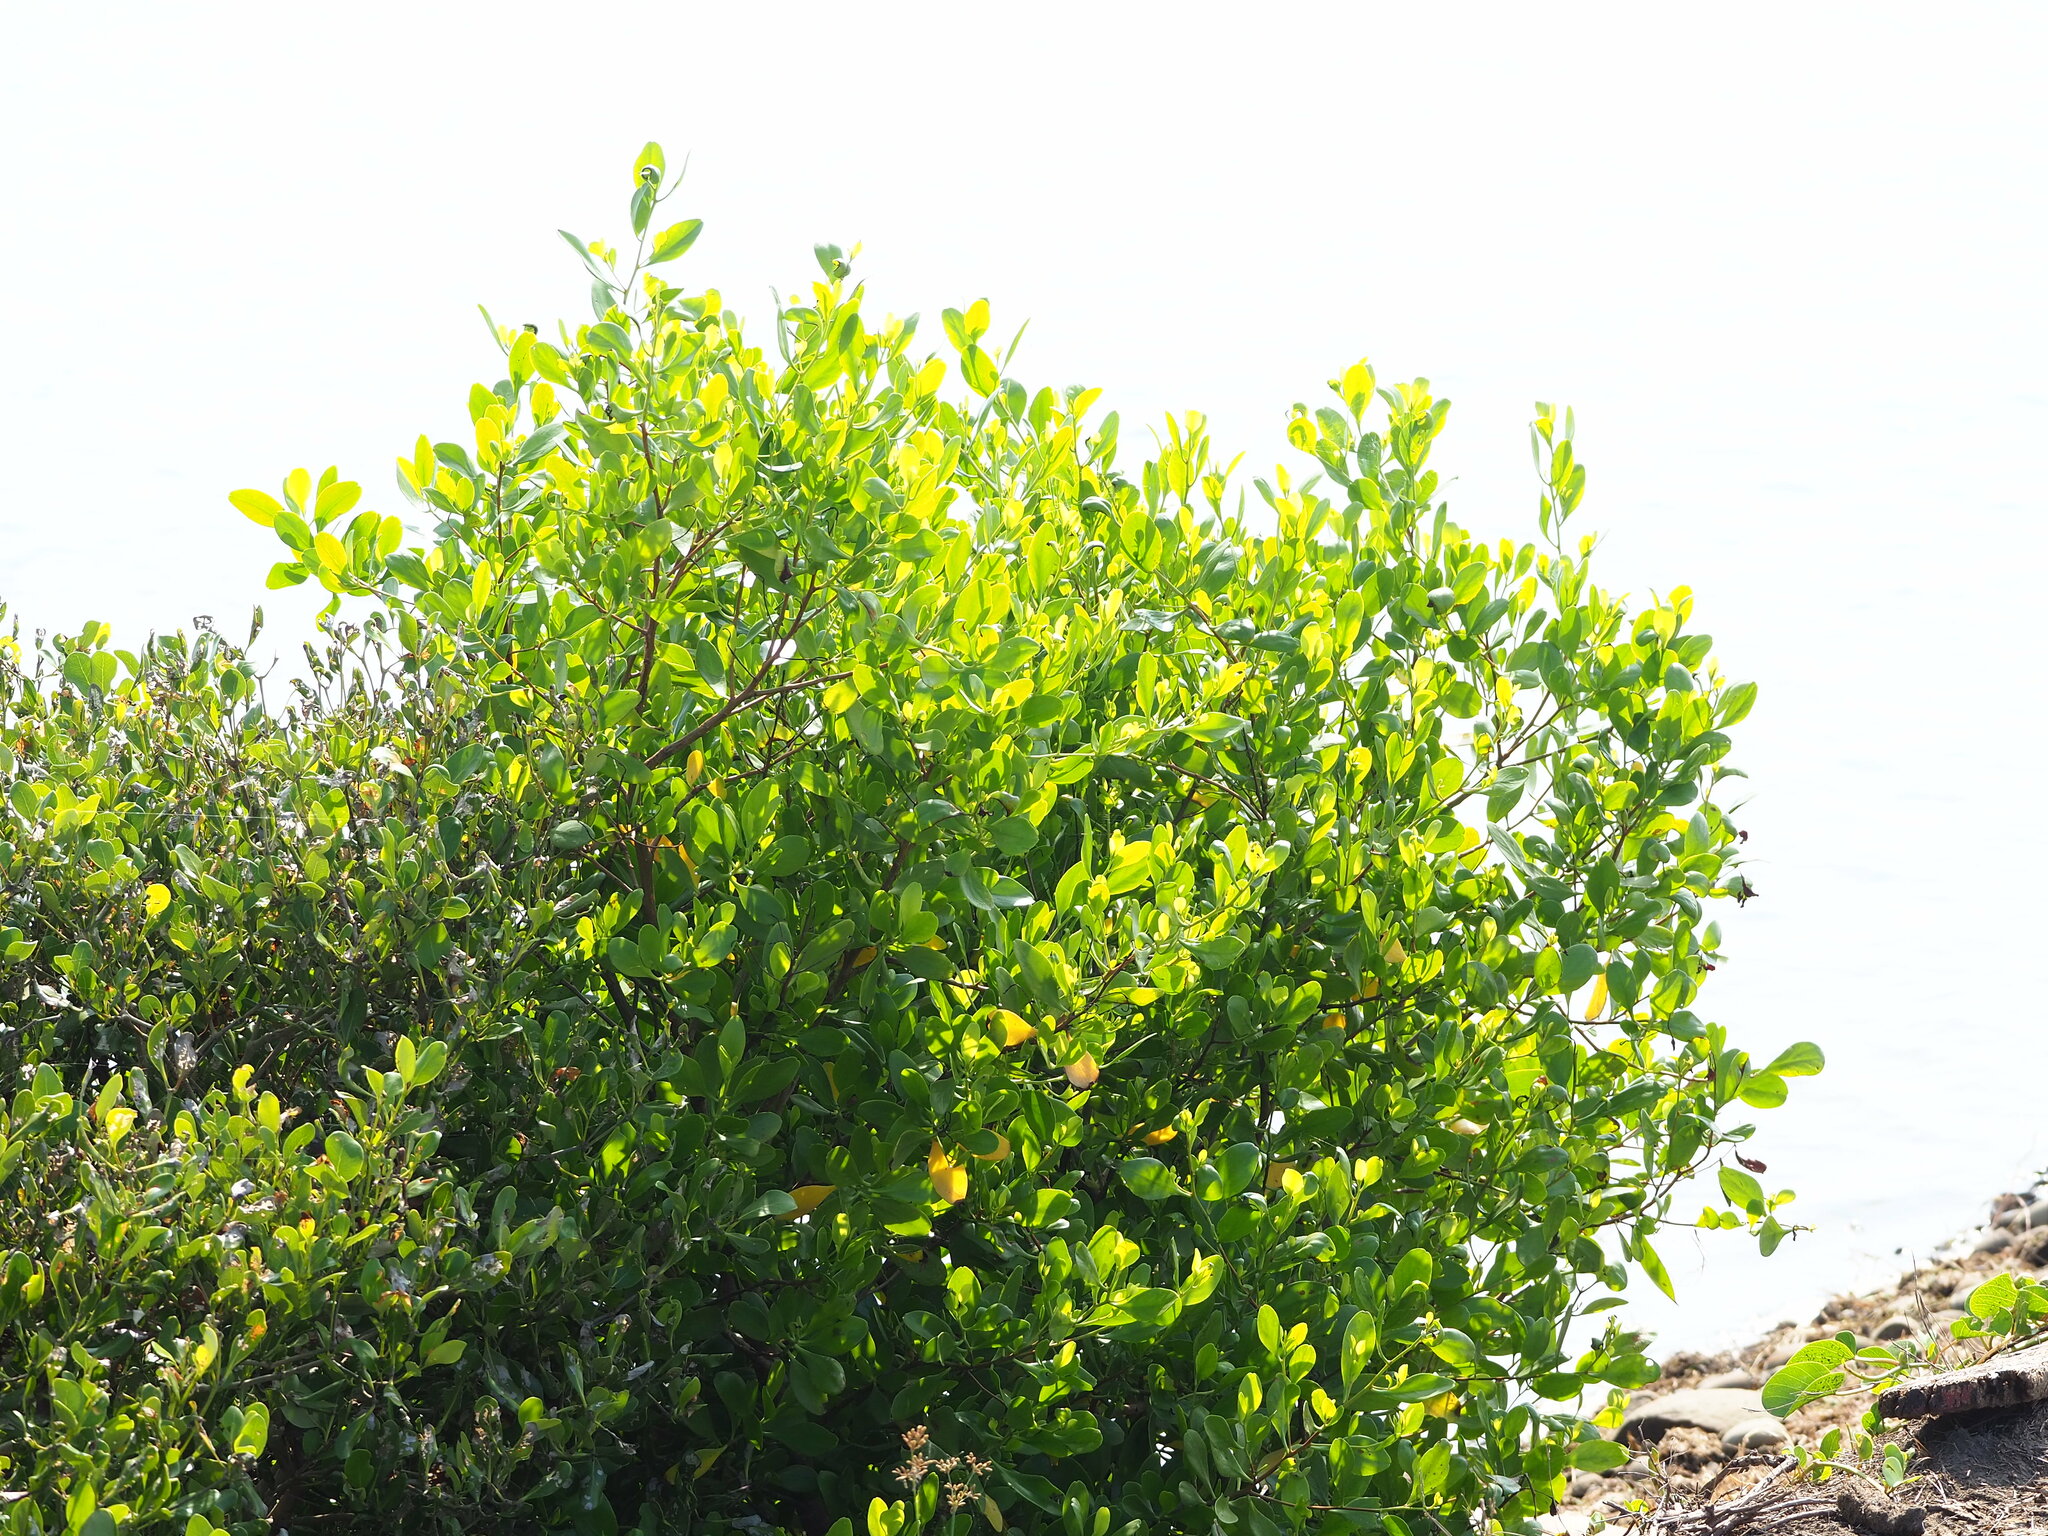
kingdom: Plantae
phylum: Tracheophyta
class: Magnoliopsida
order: Myrtales
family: Combretaceae
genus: Lumnitzera
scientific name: Lumnitzera racemosa
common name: White-flowered black mangrove
